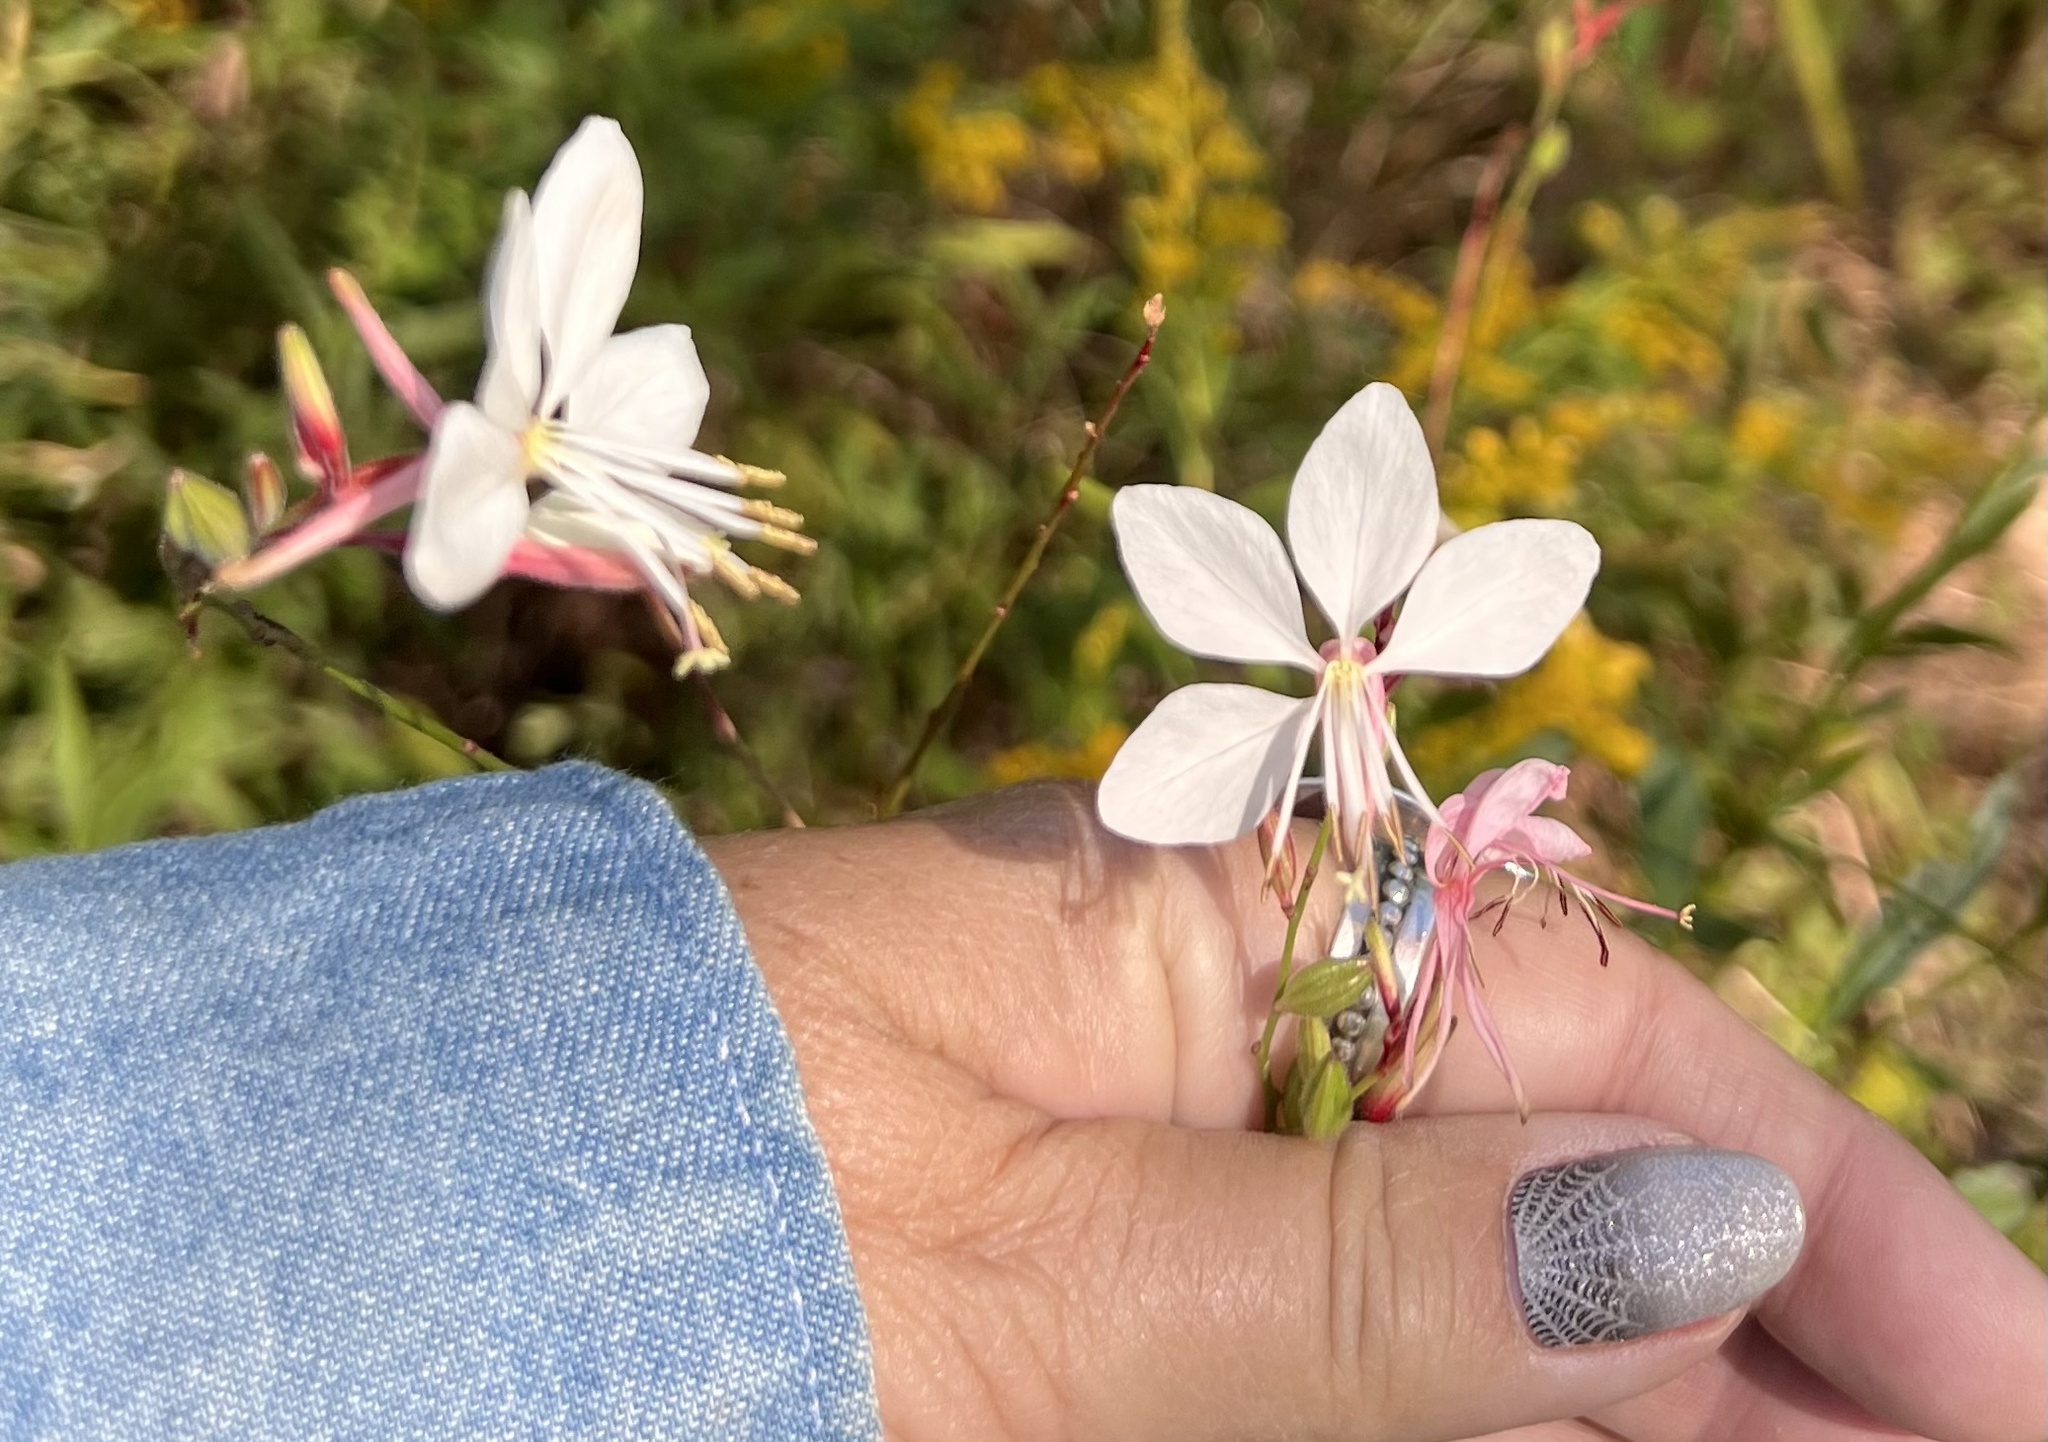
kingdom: Plantae
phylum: Tracheophyta
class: Magnoliopsida
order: Myrtales
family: Onagraceae
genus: Oenothera
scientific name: Oenothera lindheimeri
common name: Lindheimer's beeblossom
